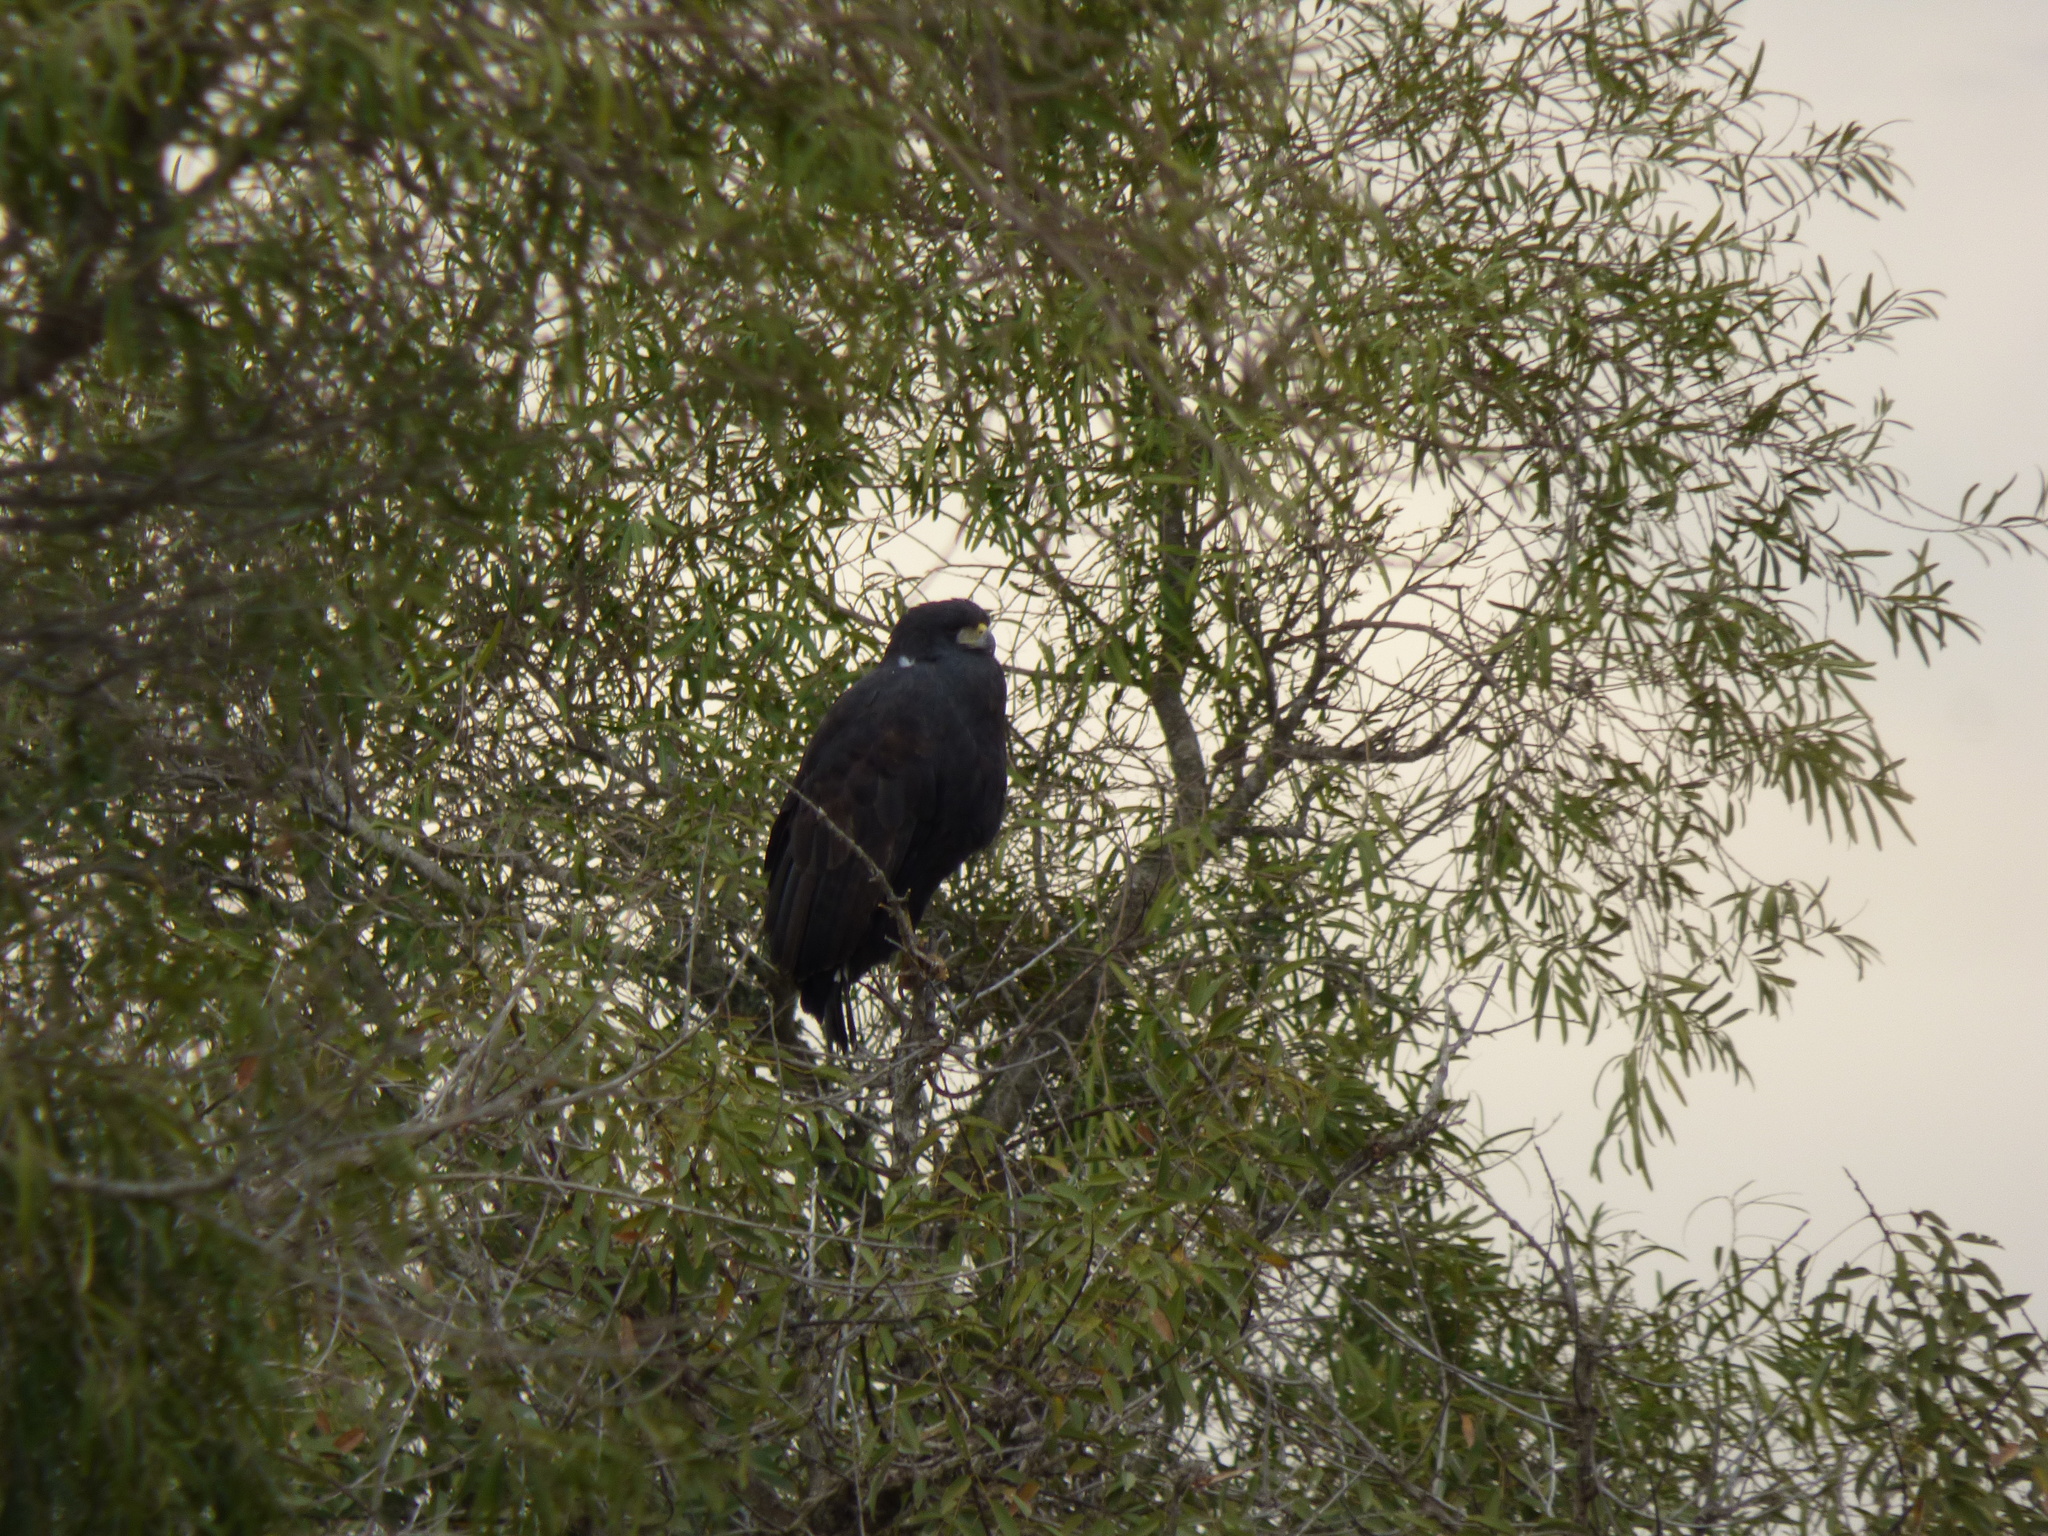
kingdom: Animalia
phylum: Chordata
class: Aves
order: Accipitriformes
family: Accipitridae
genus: Buteogallus
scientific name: Buteogallus urubitinga
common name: Great black hawk
